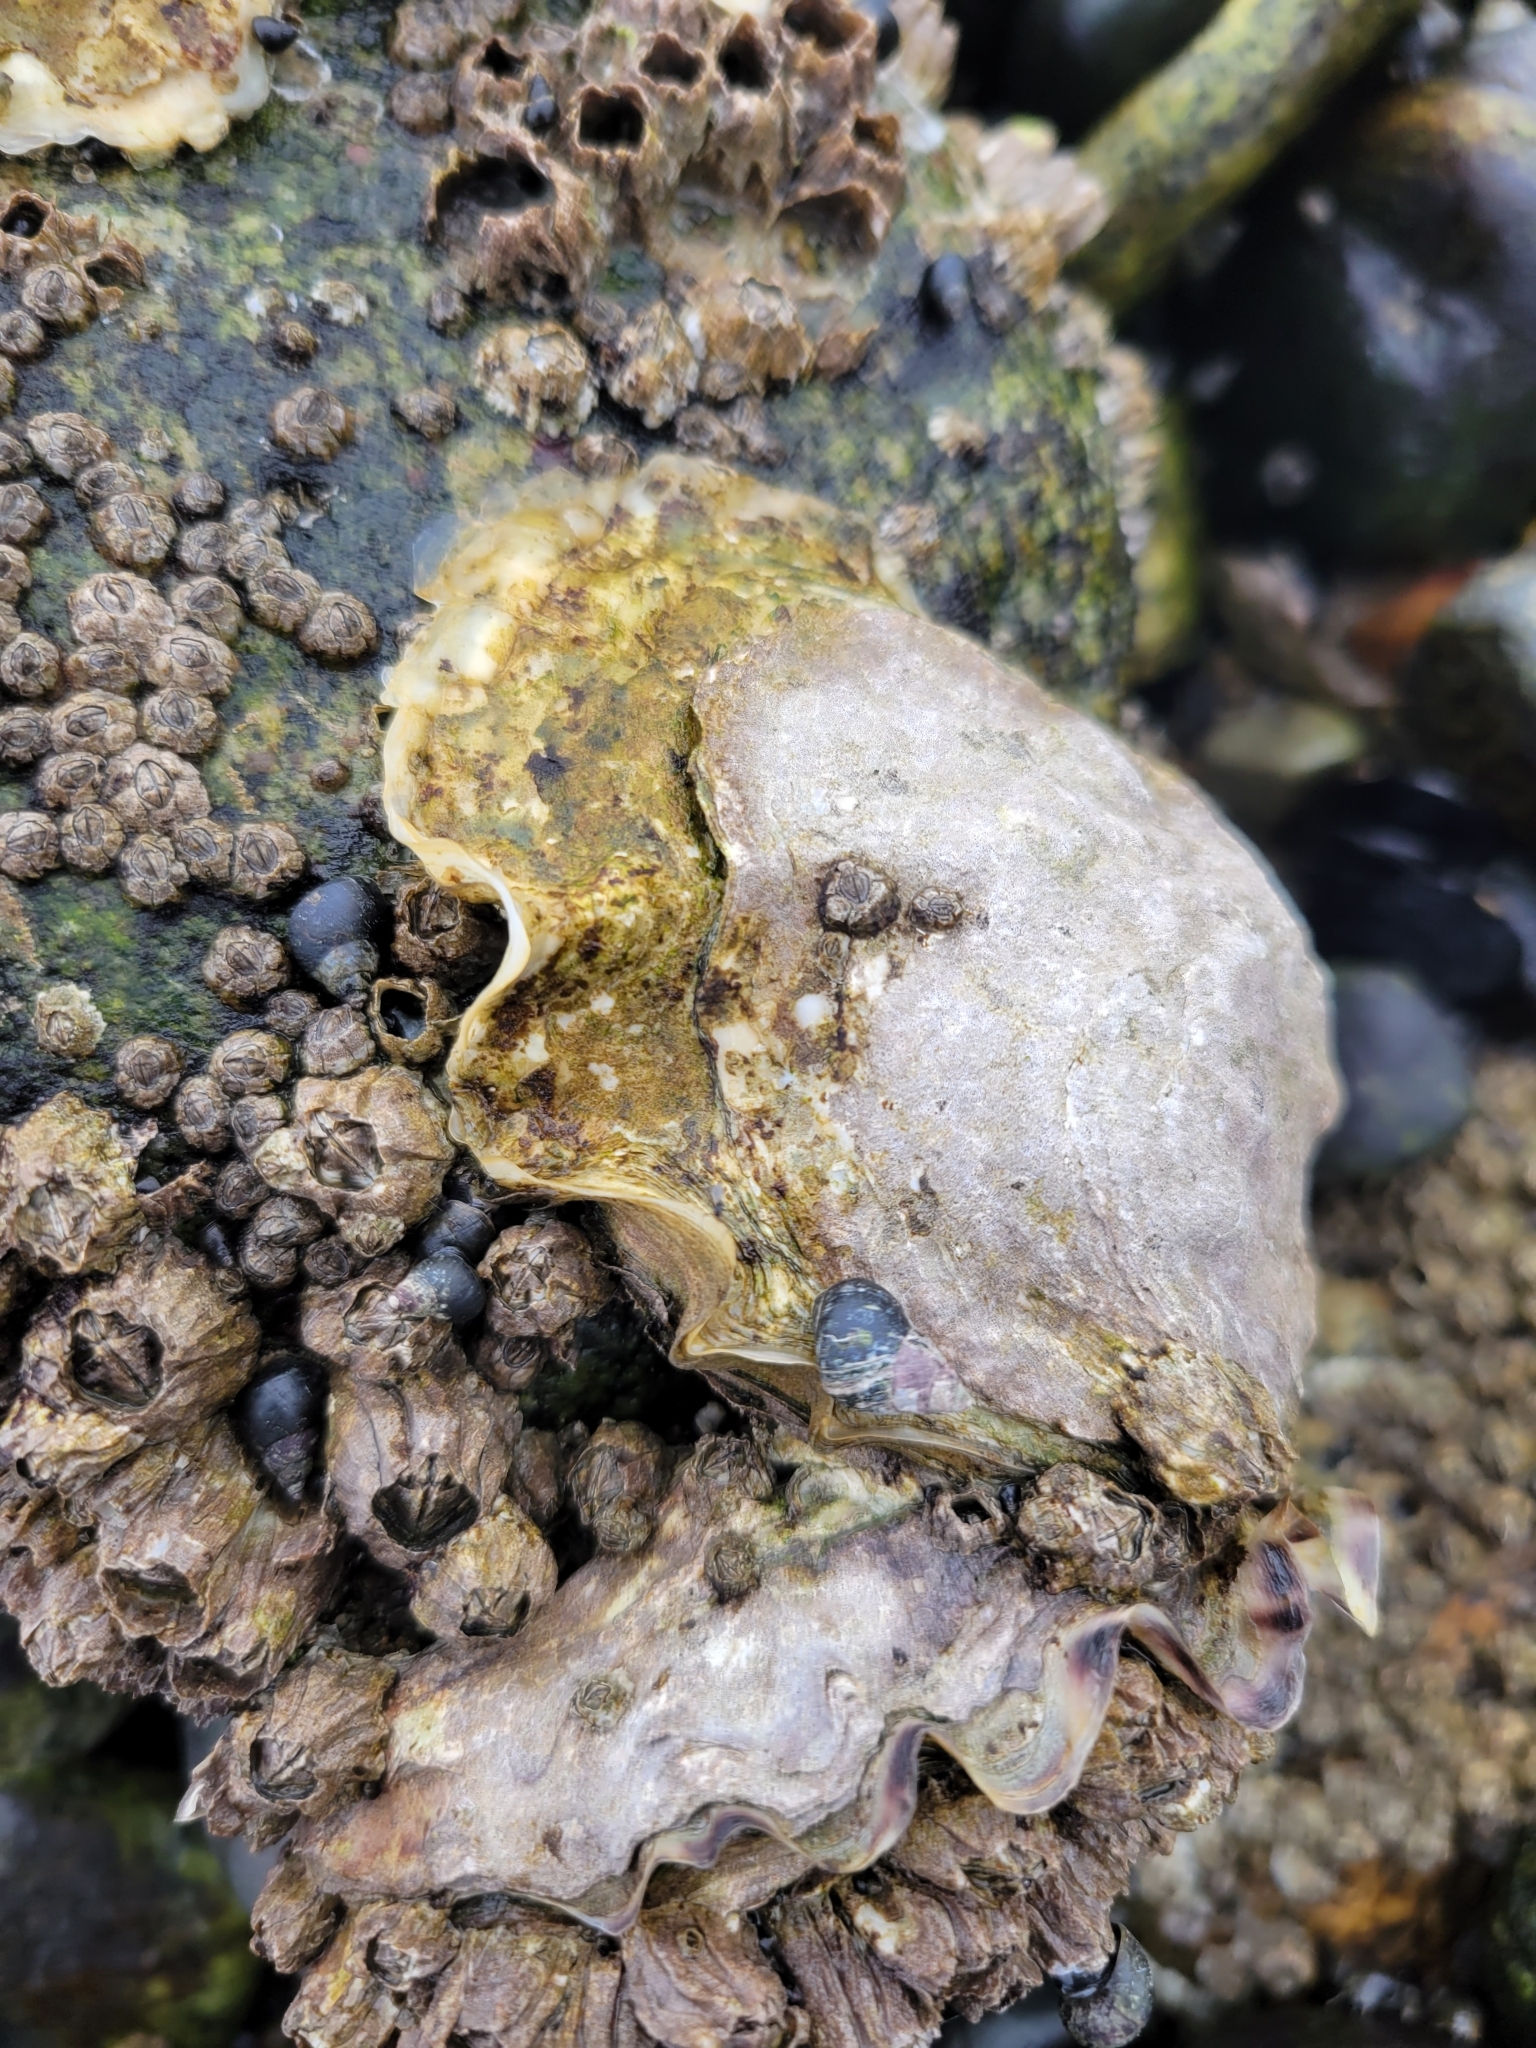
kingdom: Animalia
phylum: Mollusca
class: Bivalvia
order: Ostreida
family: Ostreidae
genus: Magallana
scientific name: Magallana gigas
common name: Pacific oyster
